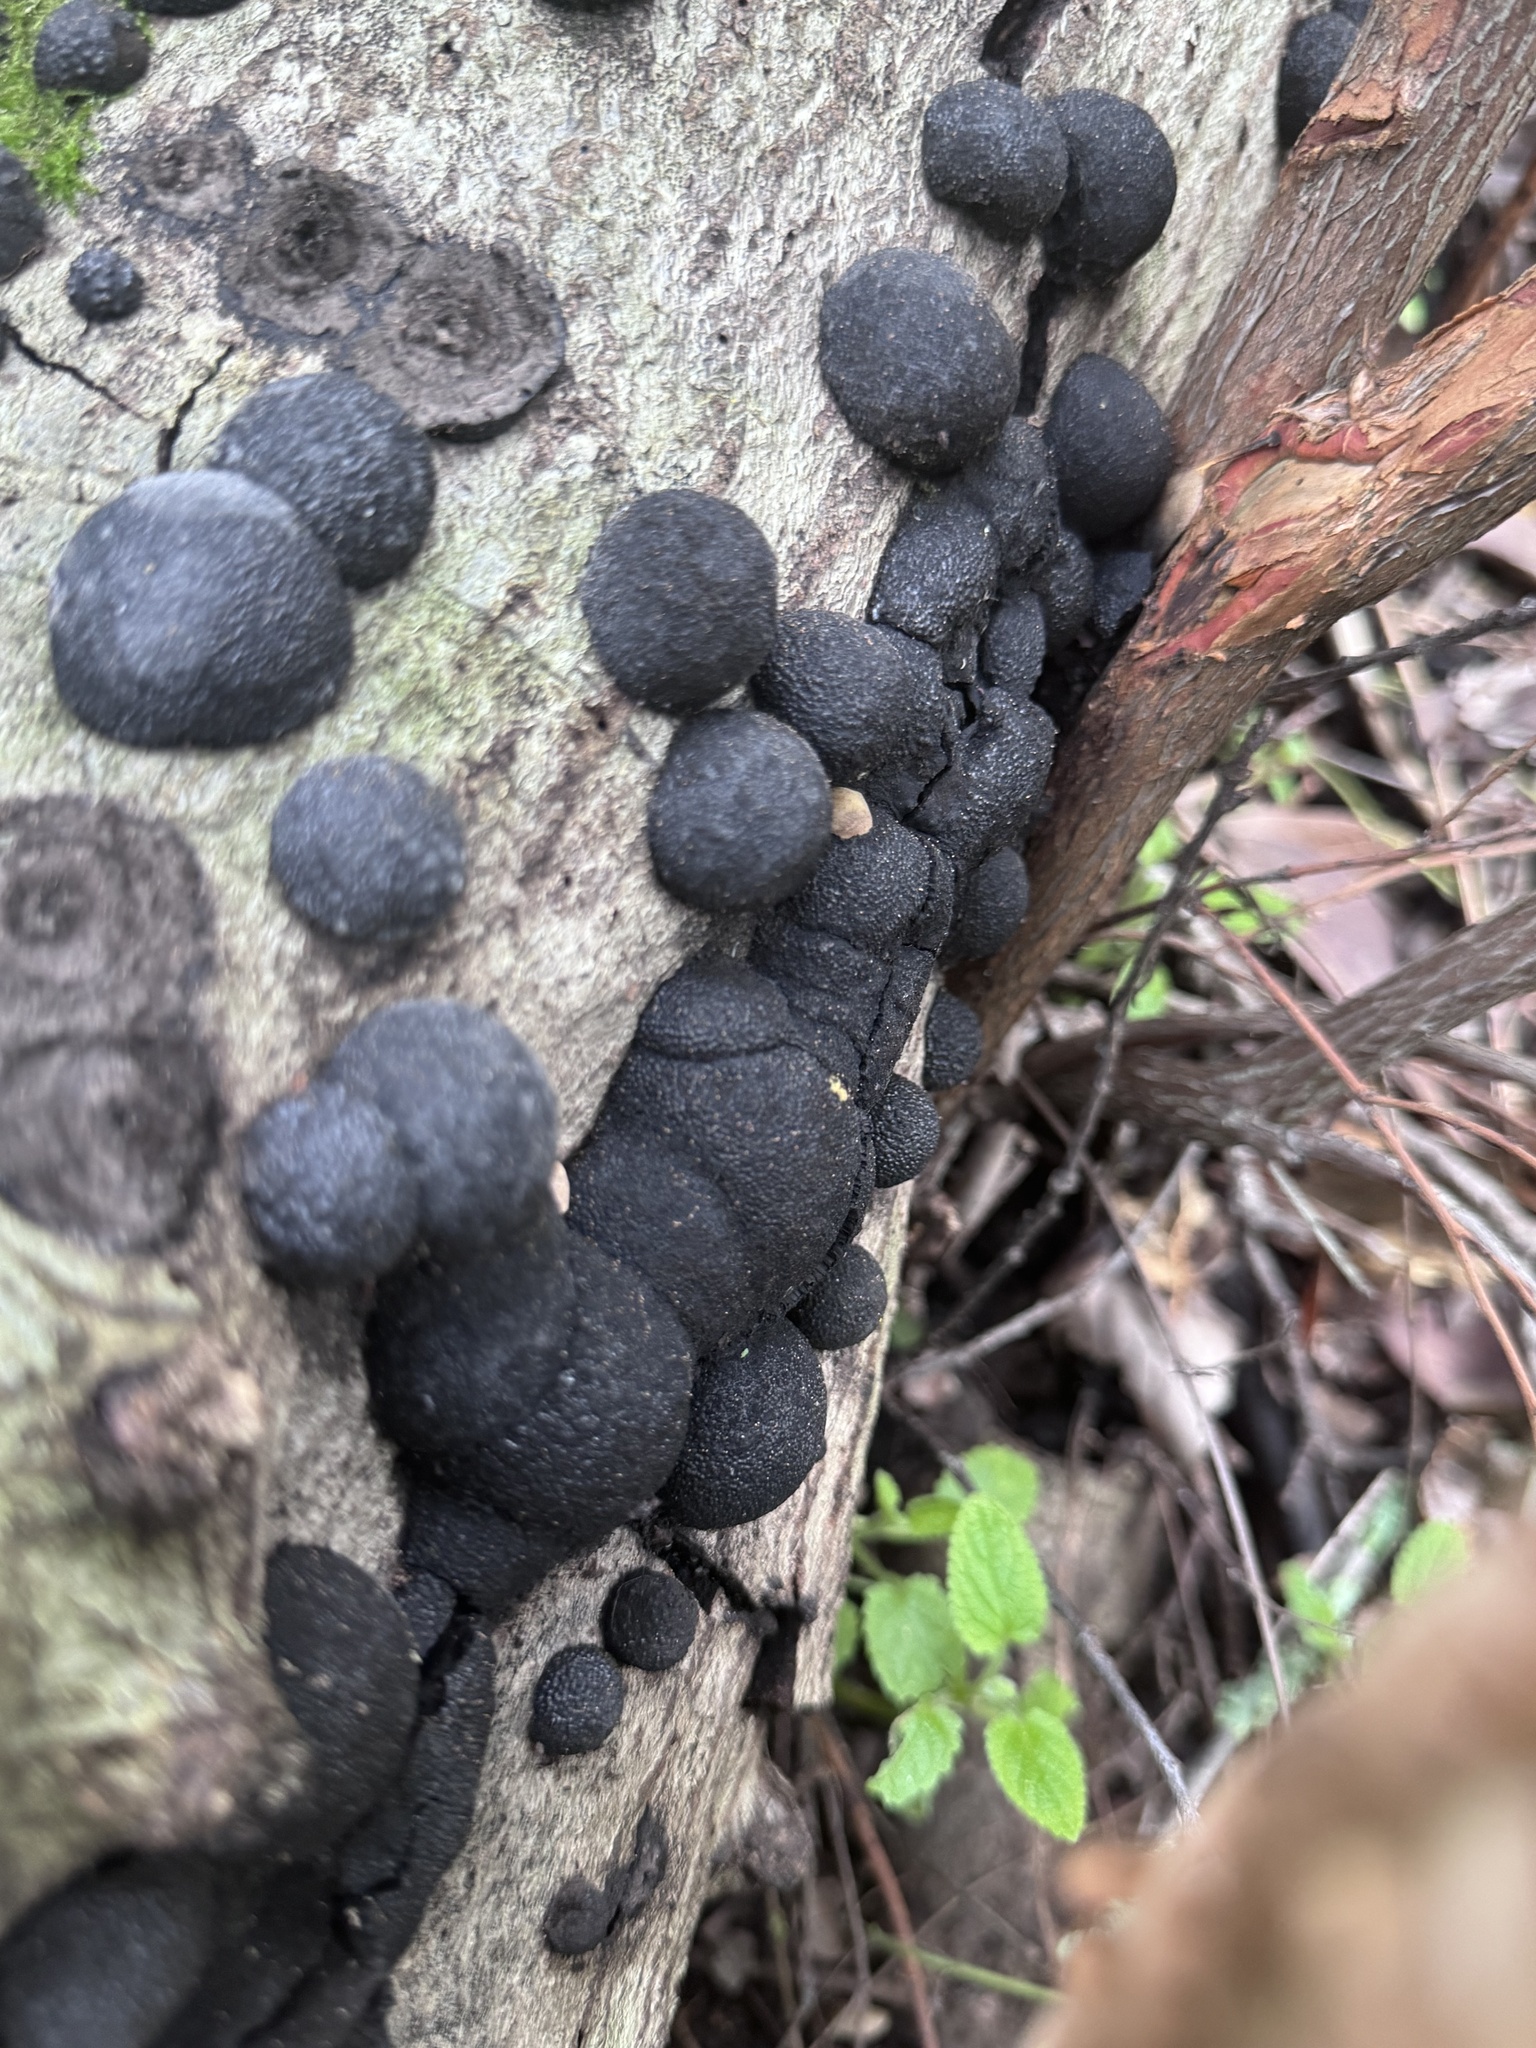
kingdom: Fungi
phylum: Ascomycota
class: Sordariomycetes
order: Xylariales
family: Hypoxylaceae
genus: Annulohypoxylon
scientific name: Annulohypoxylon thouarsianum
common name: Cramp balls
